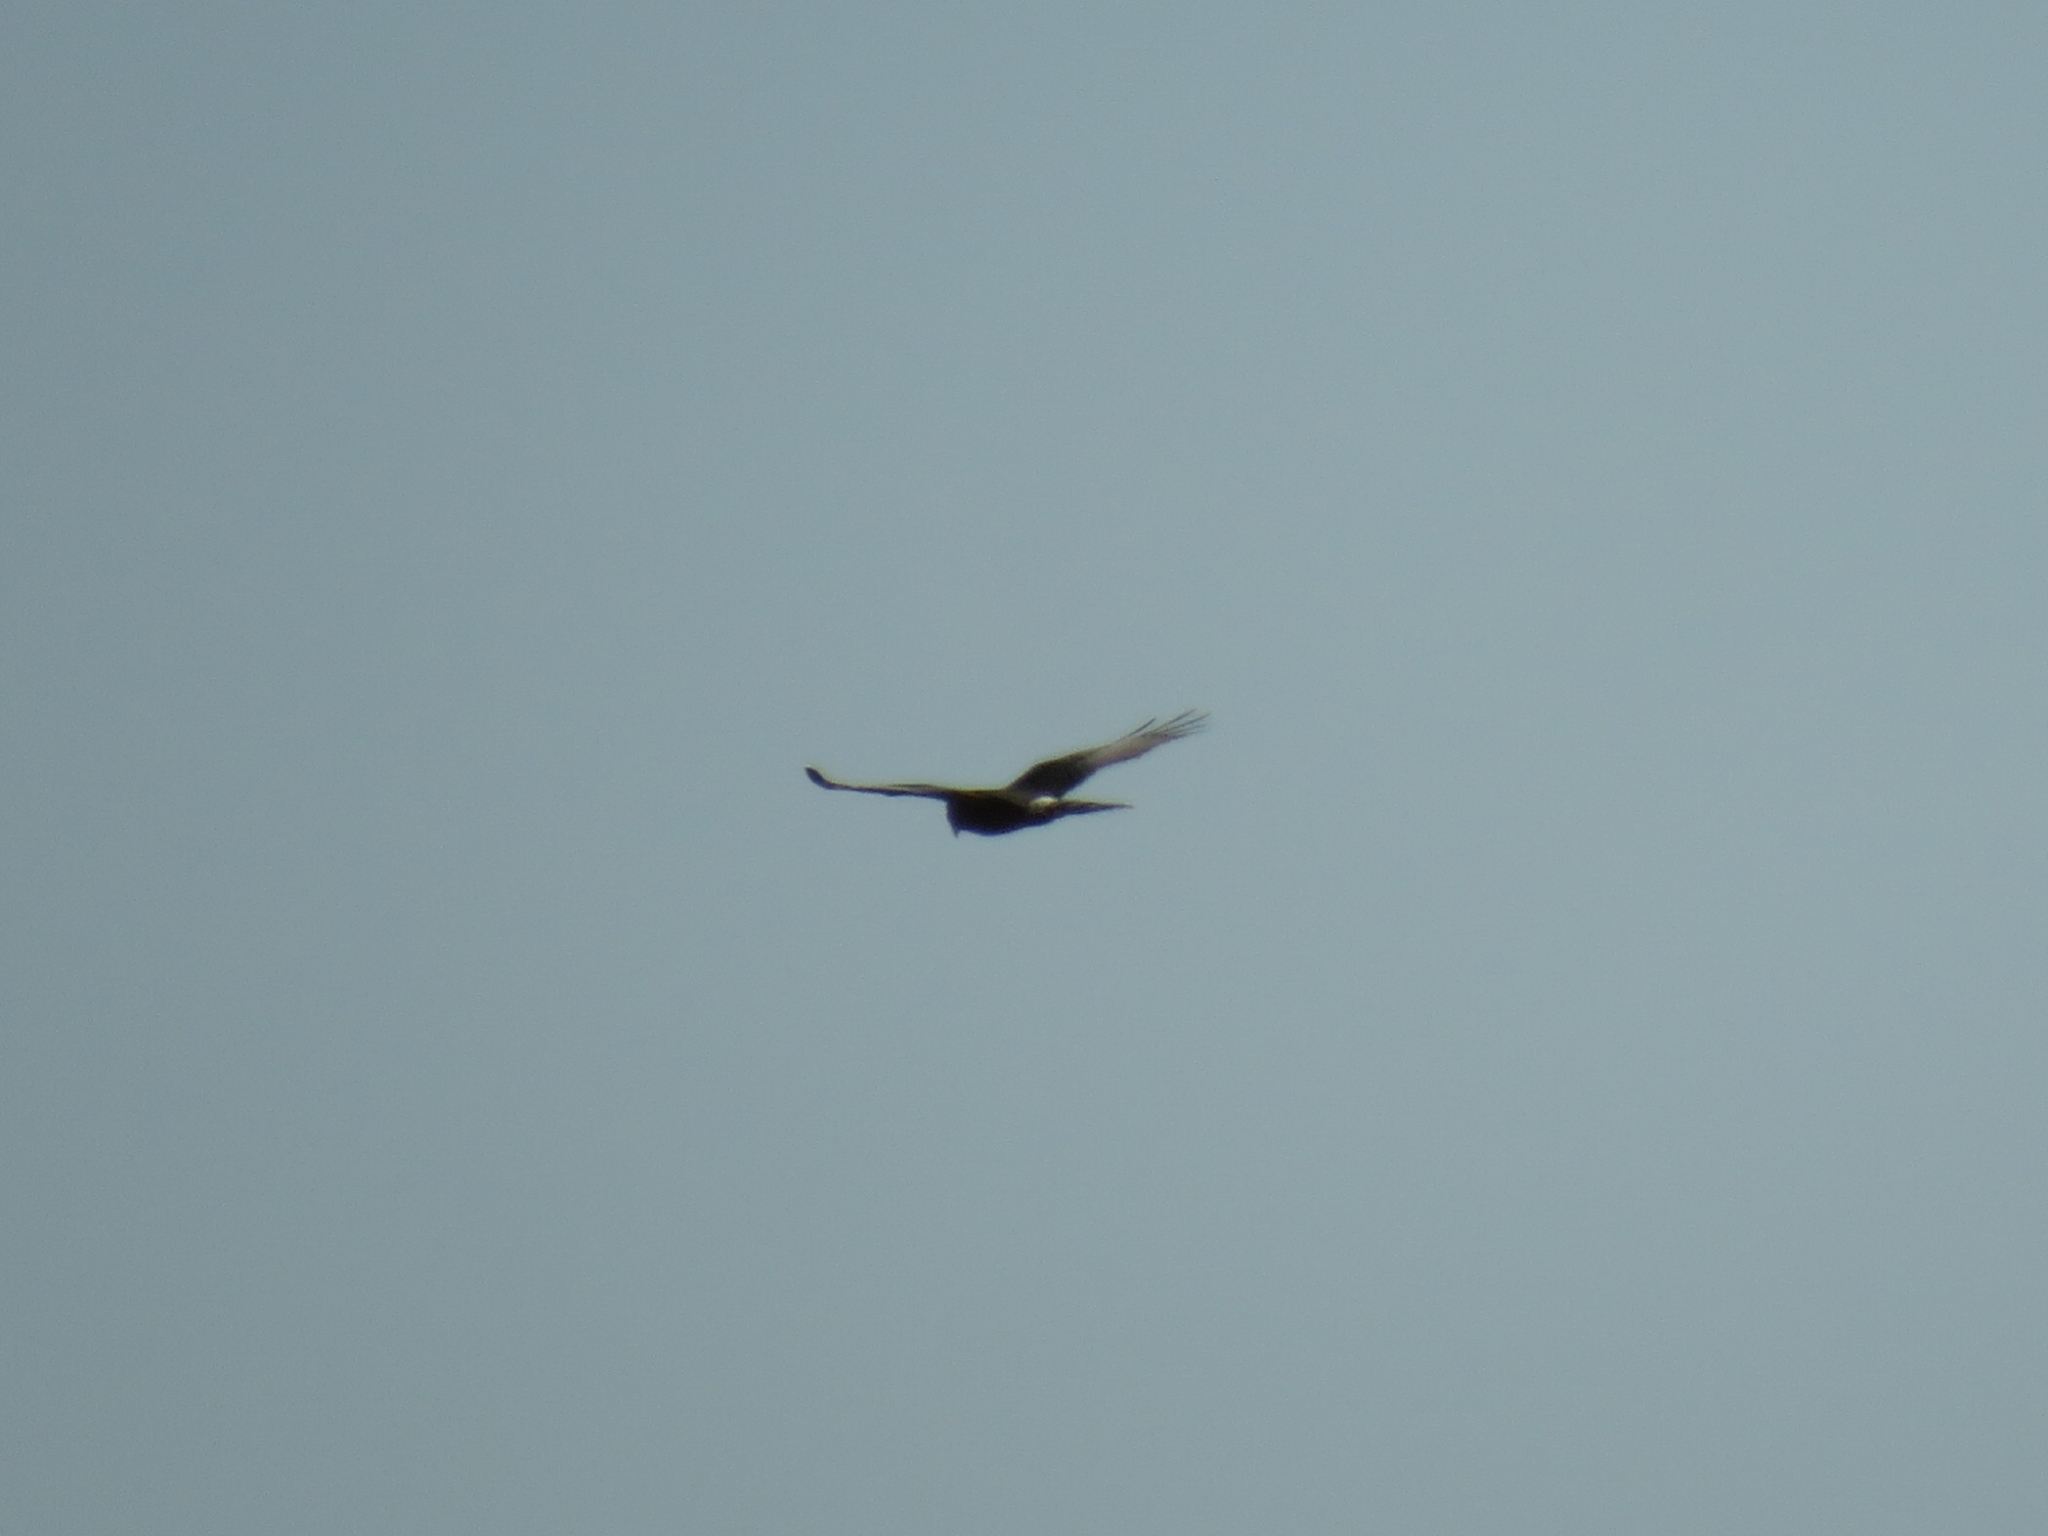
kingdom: Animalia
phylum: Chordata
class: Aves
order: Accipitriformes
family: Accipitridae
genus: Circus
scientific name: Circus maurus
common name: Black harrier
